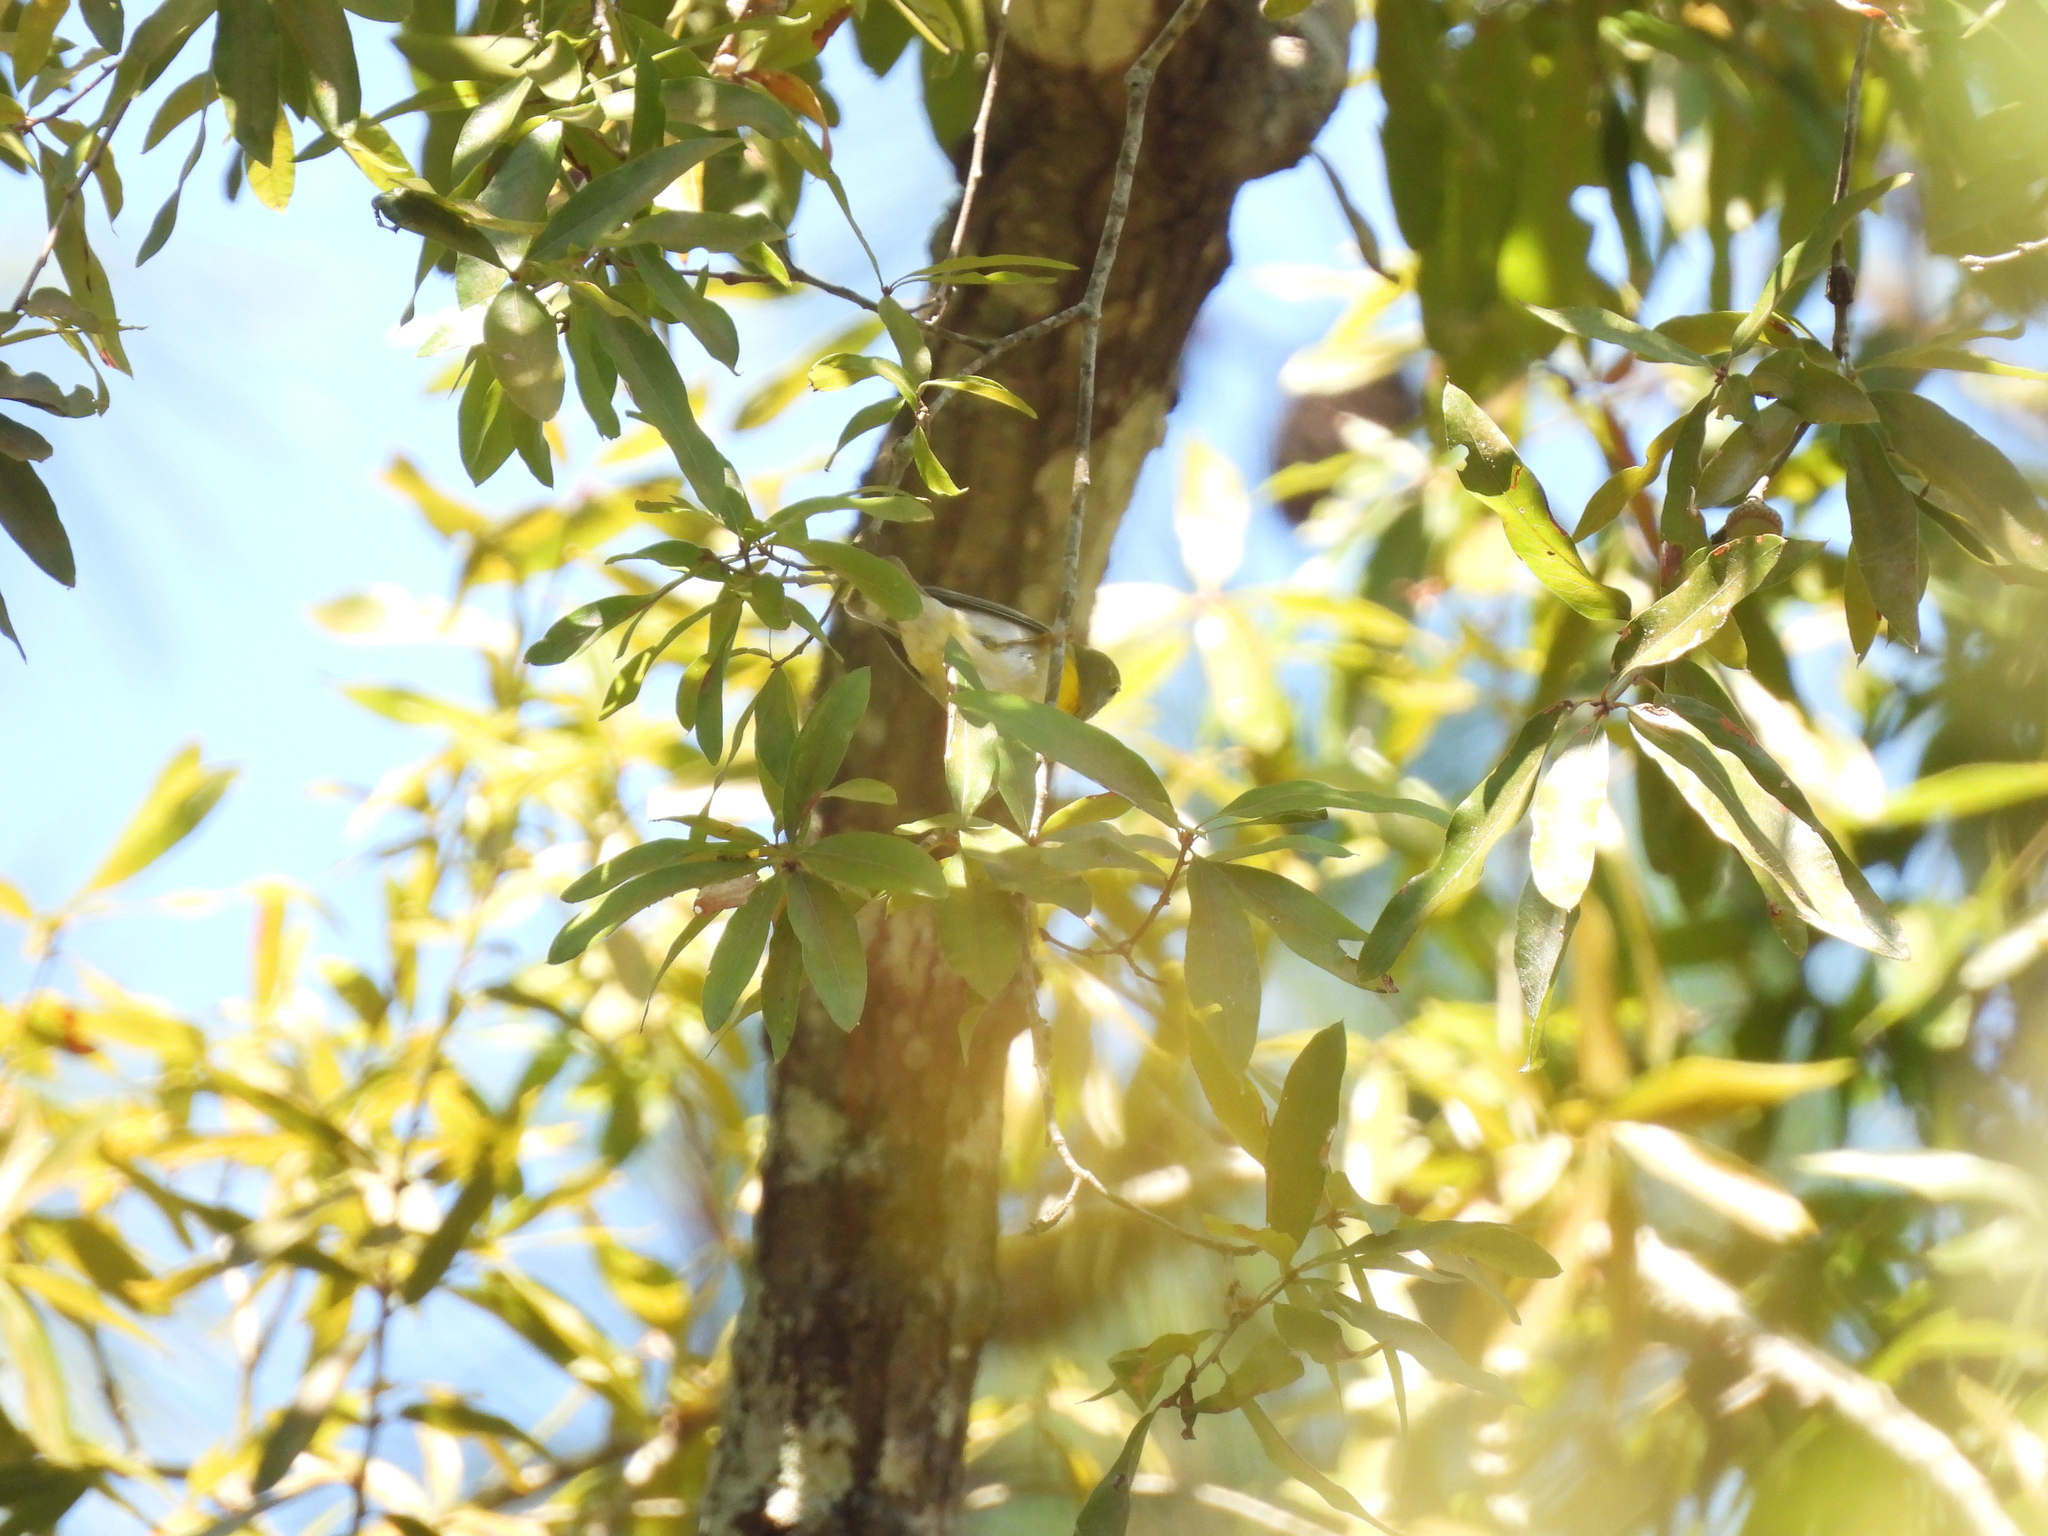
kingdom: Animalia
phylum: Chordata
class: Aves
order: Passeriformes
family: Parulidae
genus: Setophaga
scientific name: Setophaga americana
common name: Northern parula
